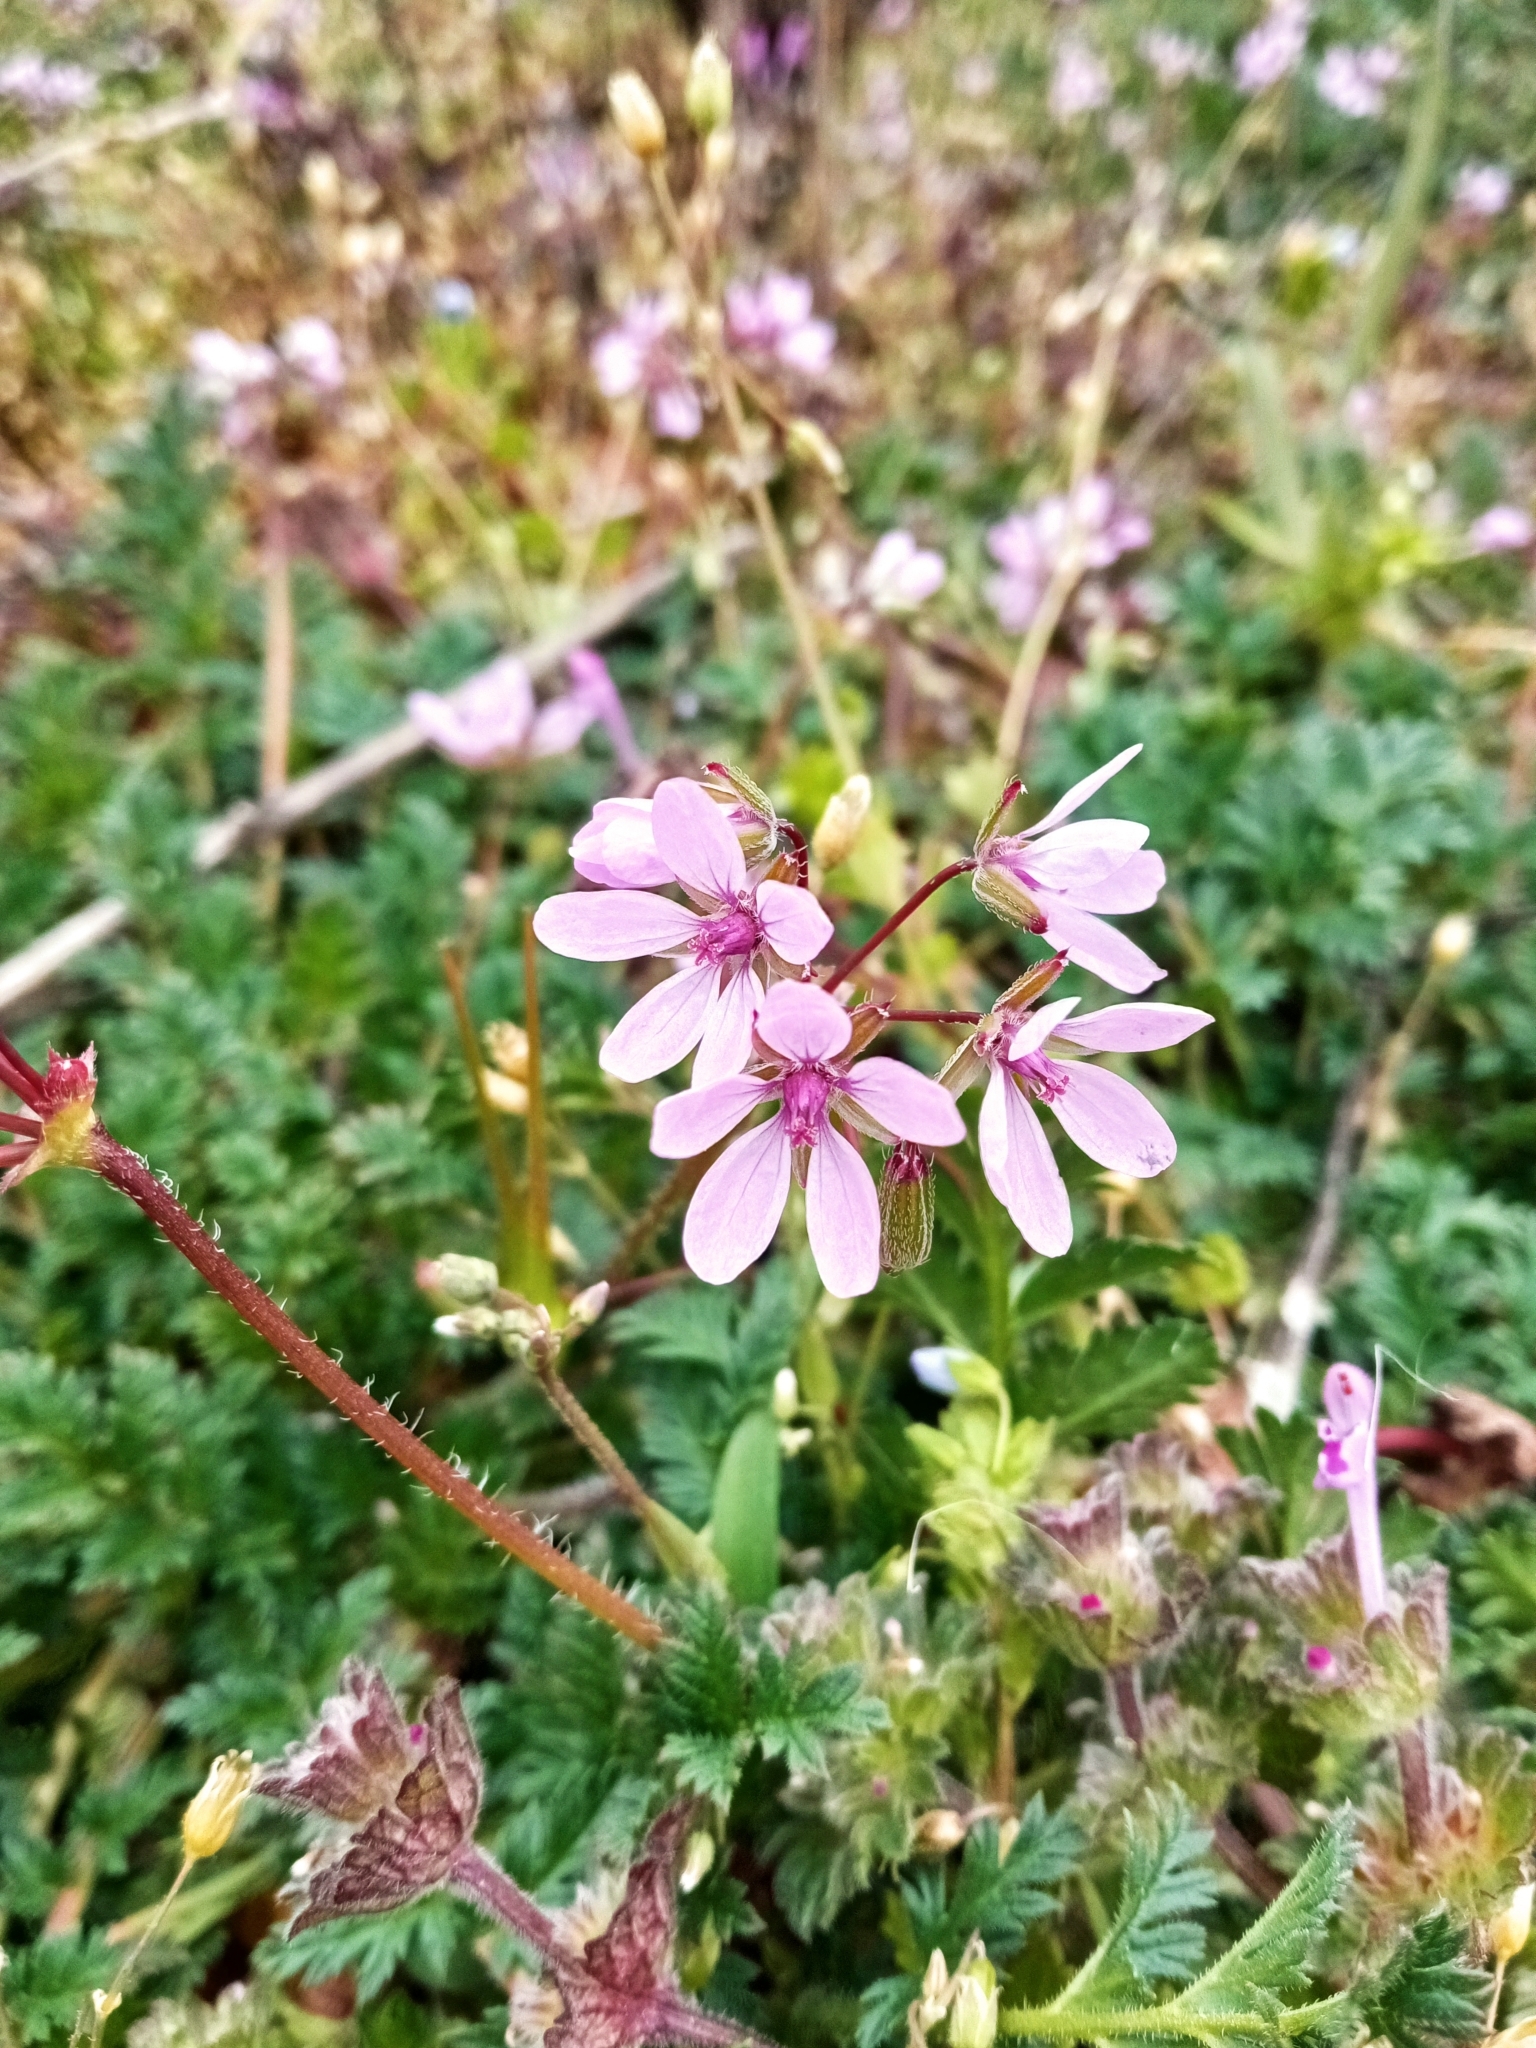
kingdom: Plantae
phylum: Tracheophyta
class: Magnoliopsida
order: Geraniales
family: Geraniaceae
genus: Erodium
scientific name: Erodium cicutarium
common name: Common stork's-bill
